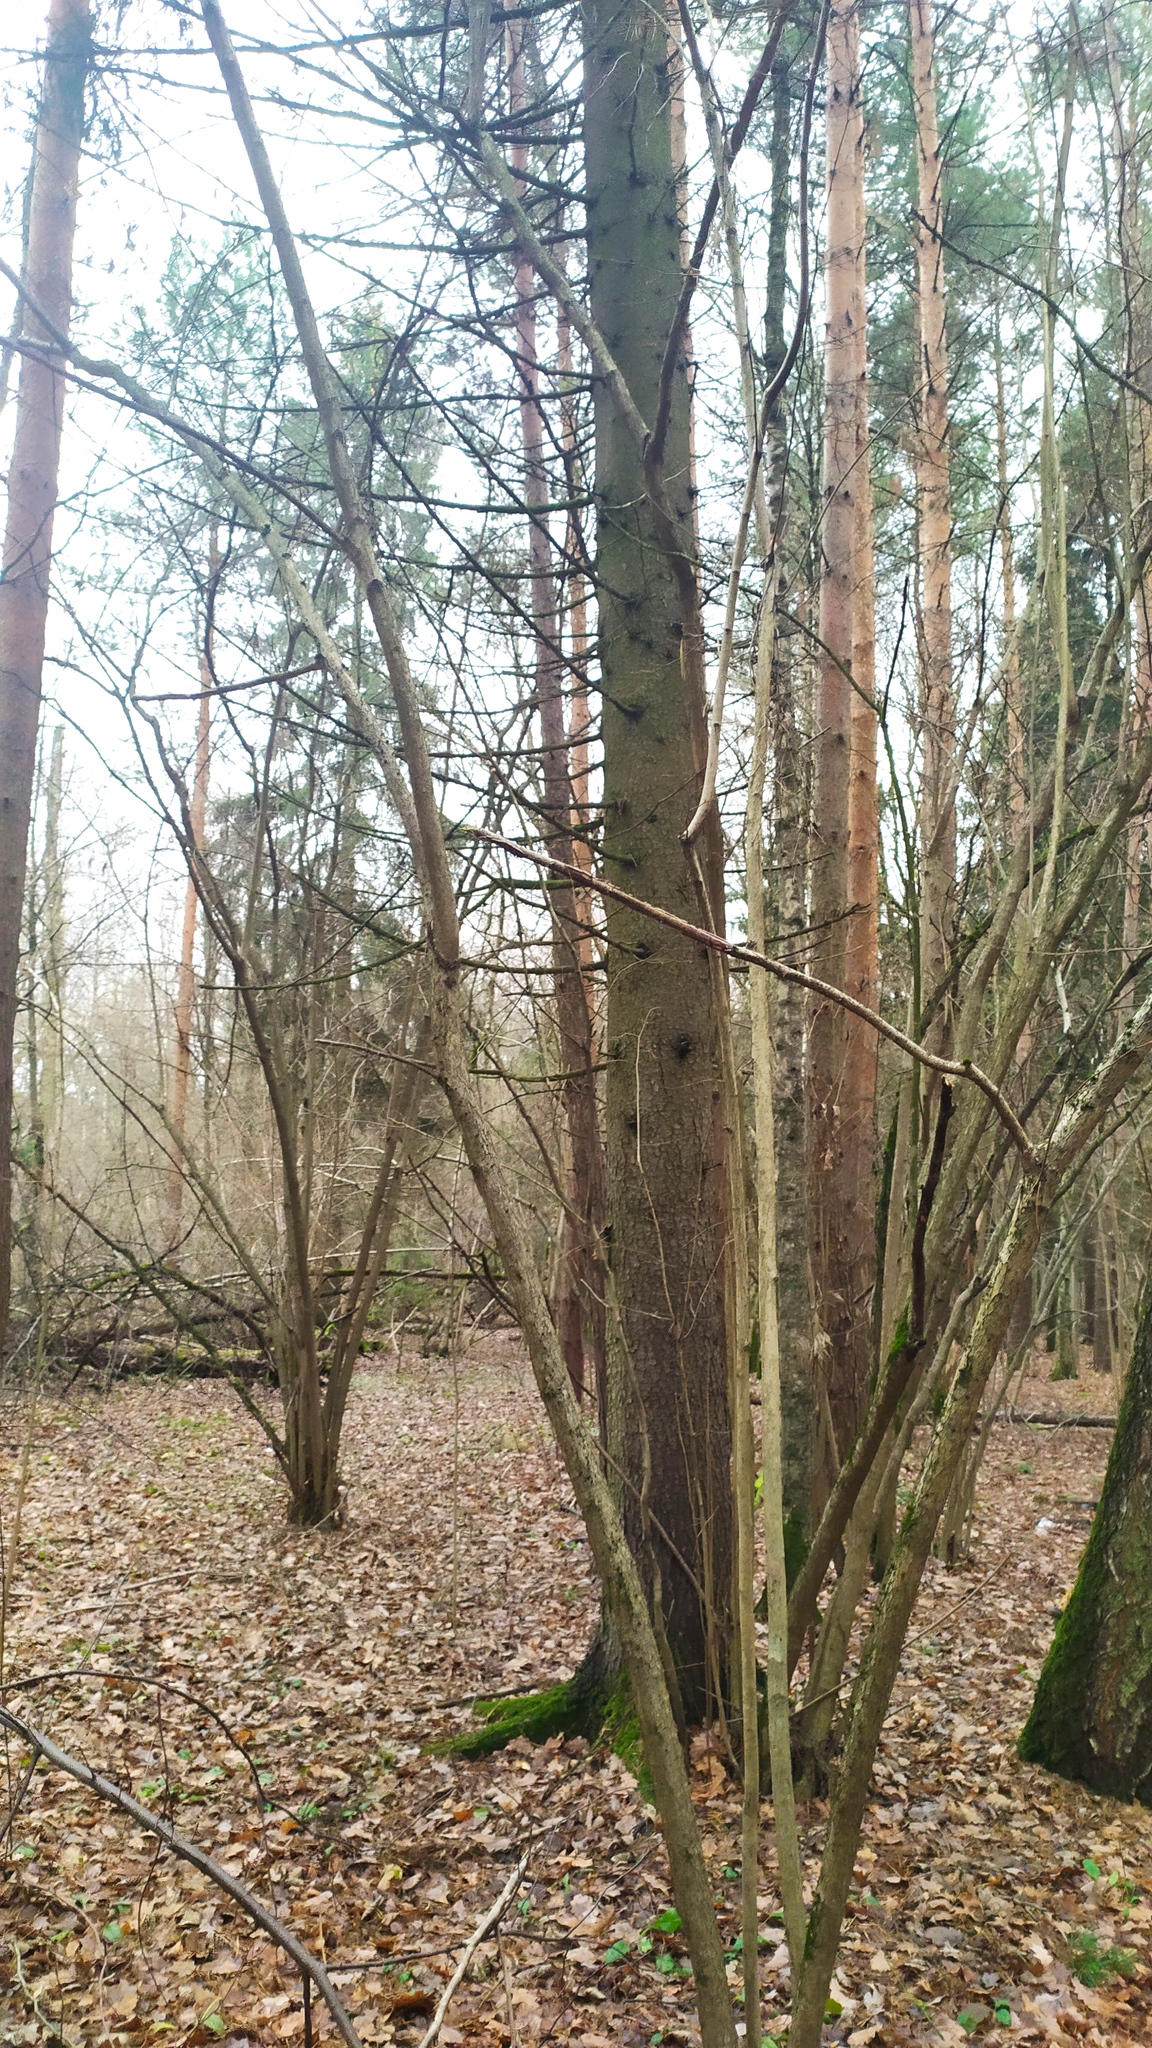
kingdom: Plantae
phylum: Tracheophyta
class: Pinopsida
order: Pinales
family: Pinaceae
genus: Picea
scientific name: Picea abies
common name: Norway spruce
